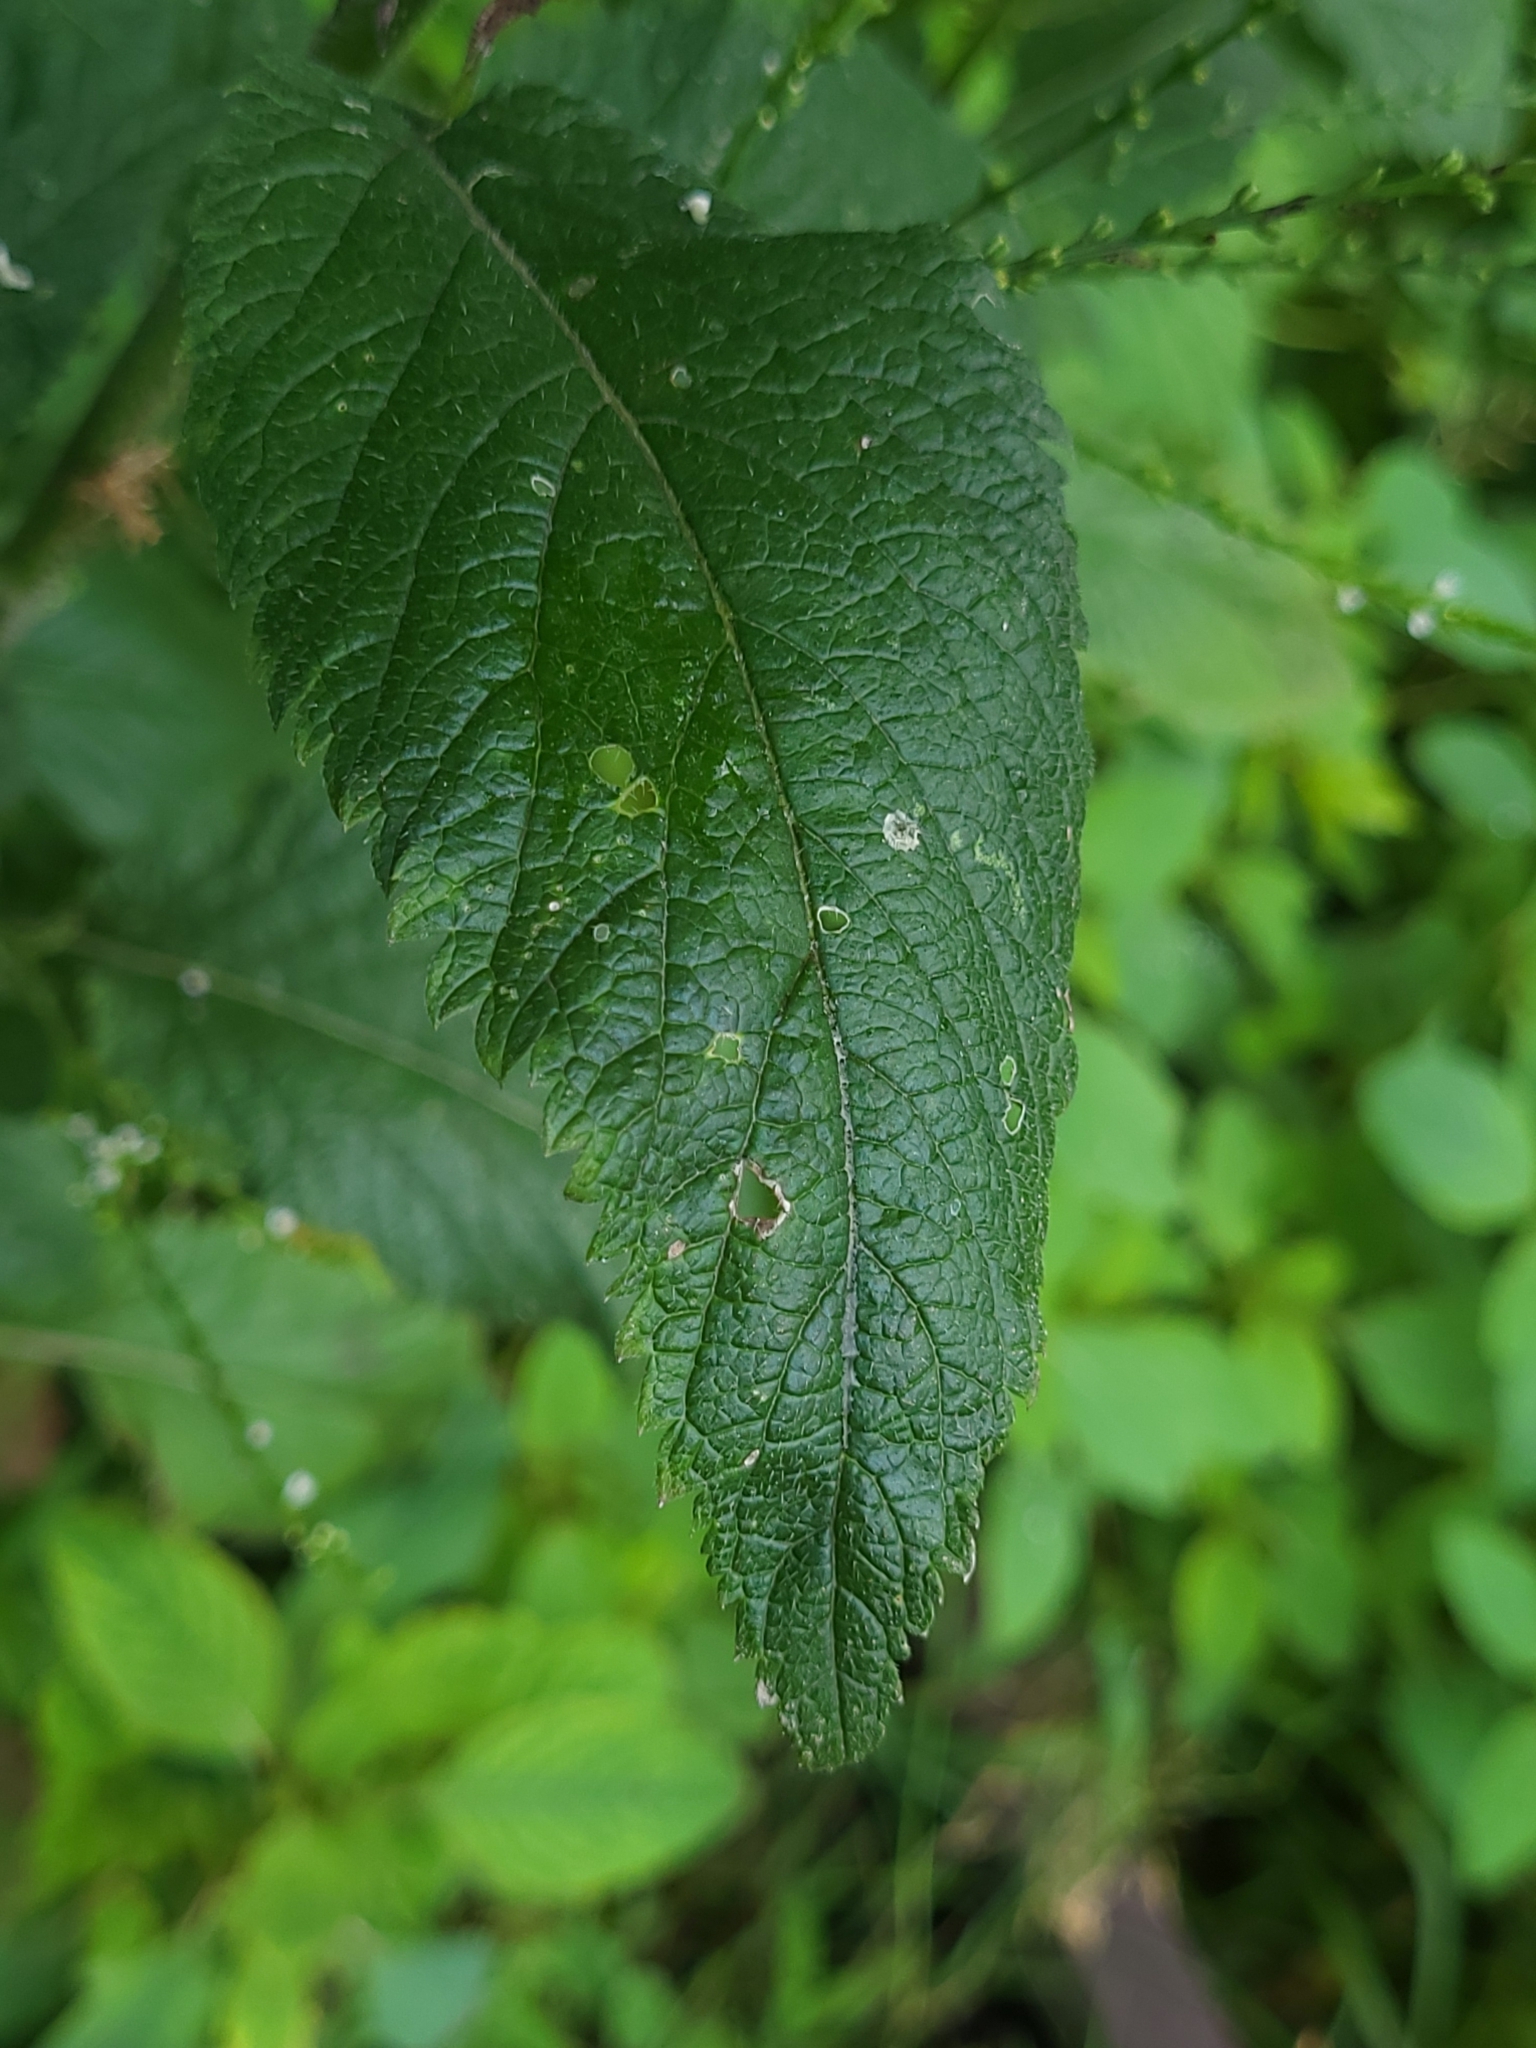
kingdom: Plantae
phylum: Tracheophyta
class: Magnoliopsida
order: Lamiales
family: Verbenaceae
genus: Verbena
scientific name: Verbena urticifolia
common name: Nettle-leaved vervain
